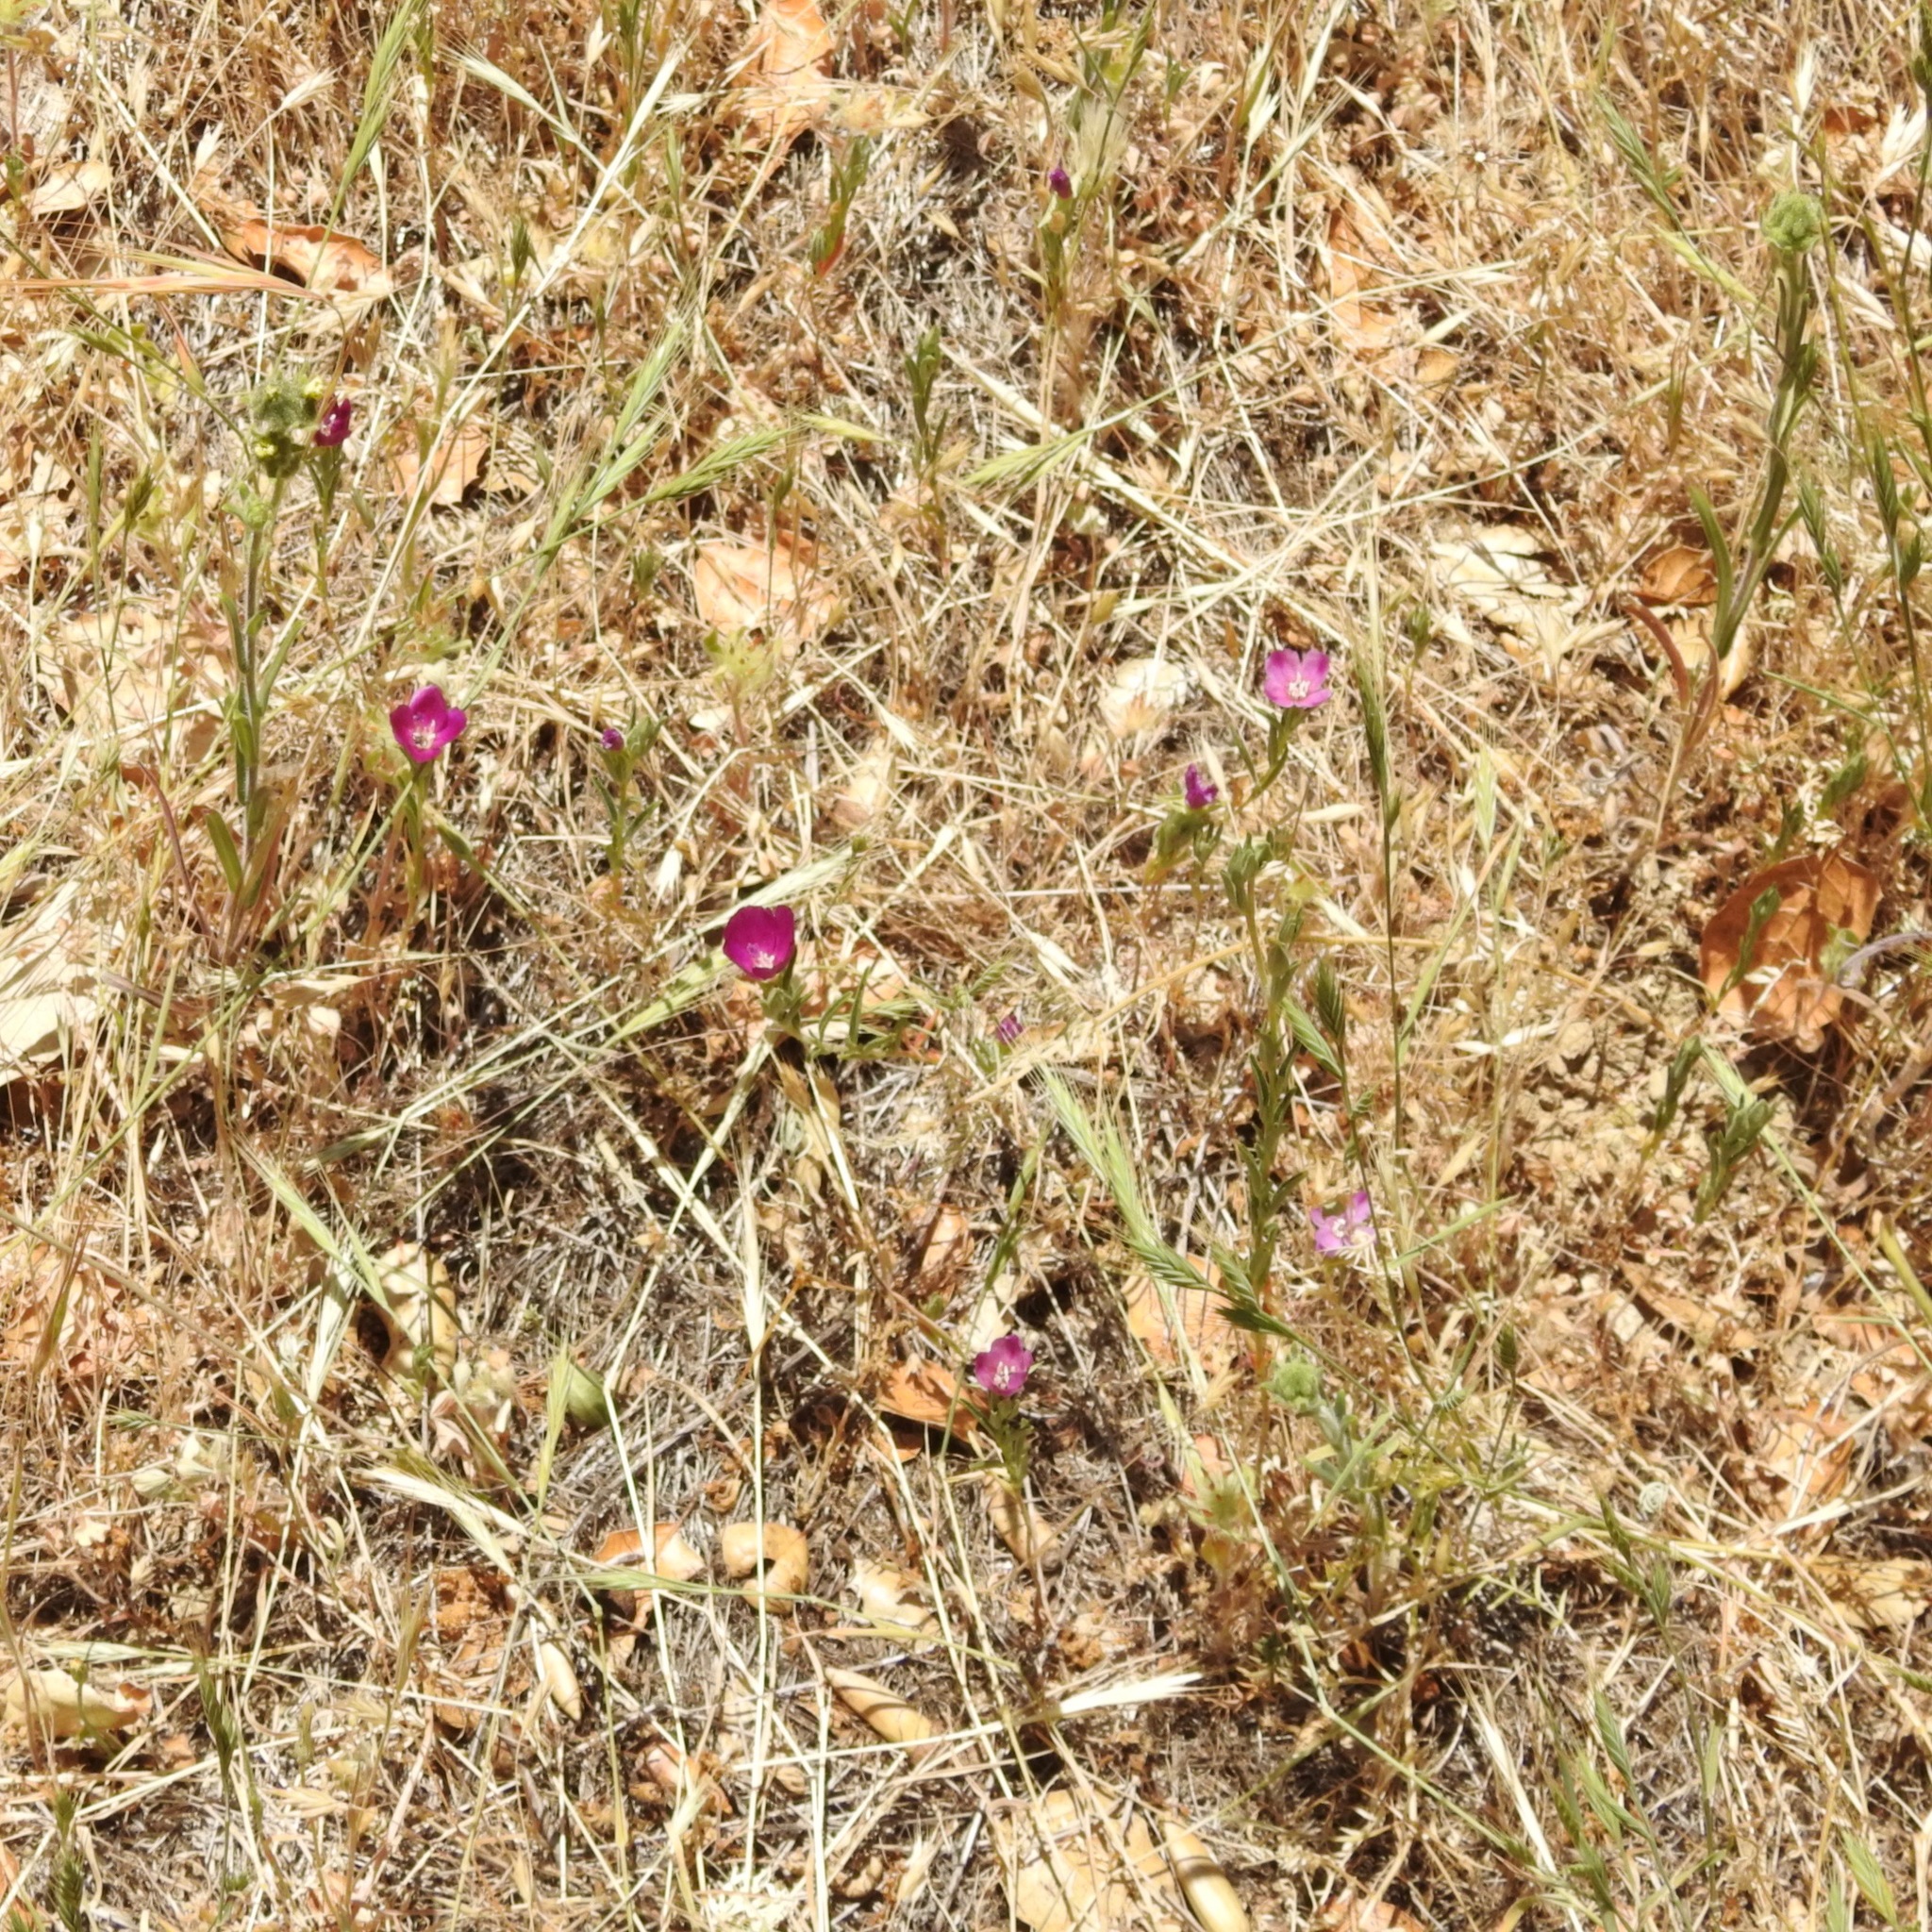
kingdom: Plantae
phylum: Tracheophyta
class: Magnoliopsida
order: Myrtales
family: Onagraceae
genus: Clarkia
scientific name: Clarkia purpurea
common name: Purple clarkia
